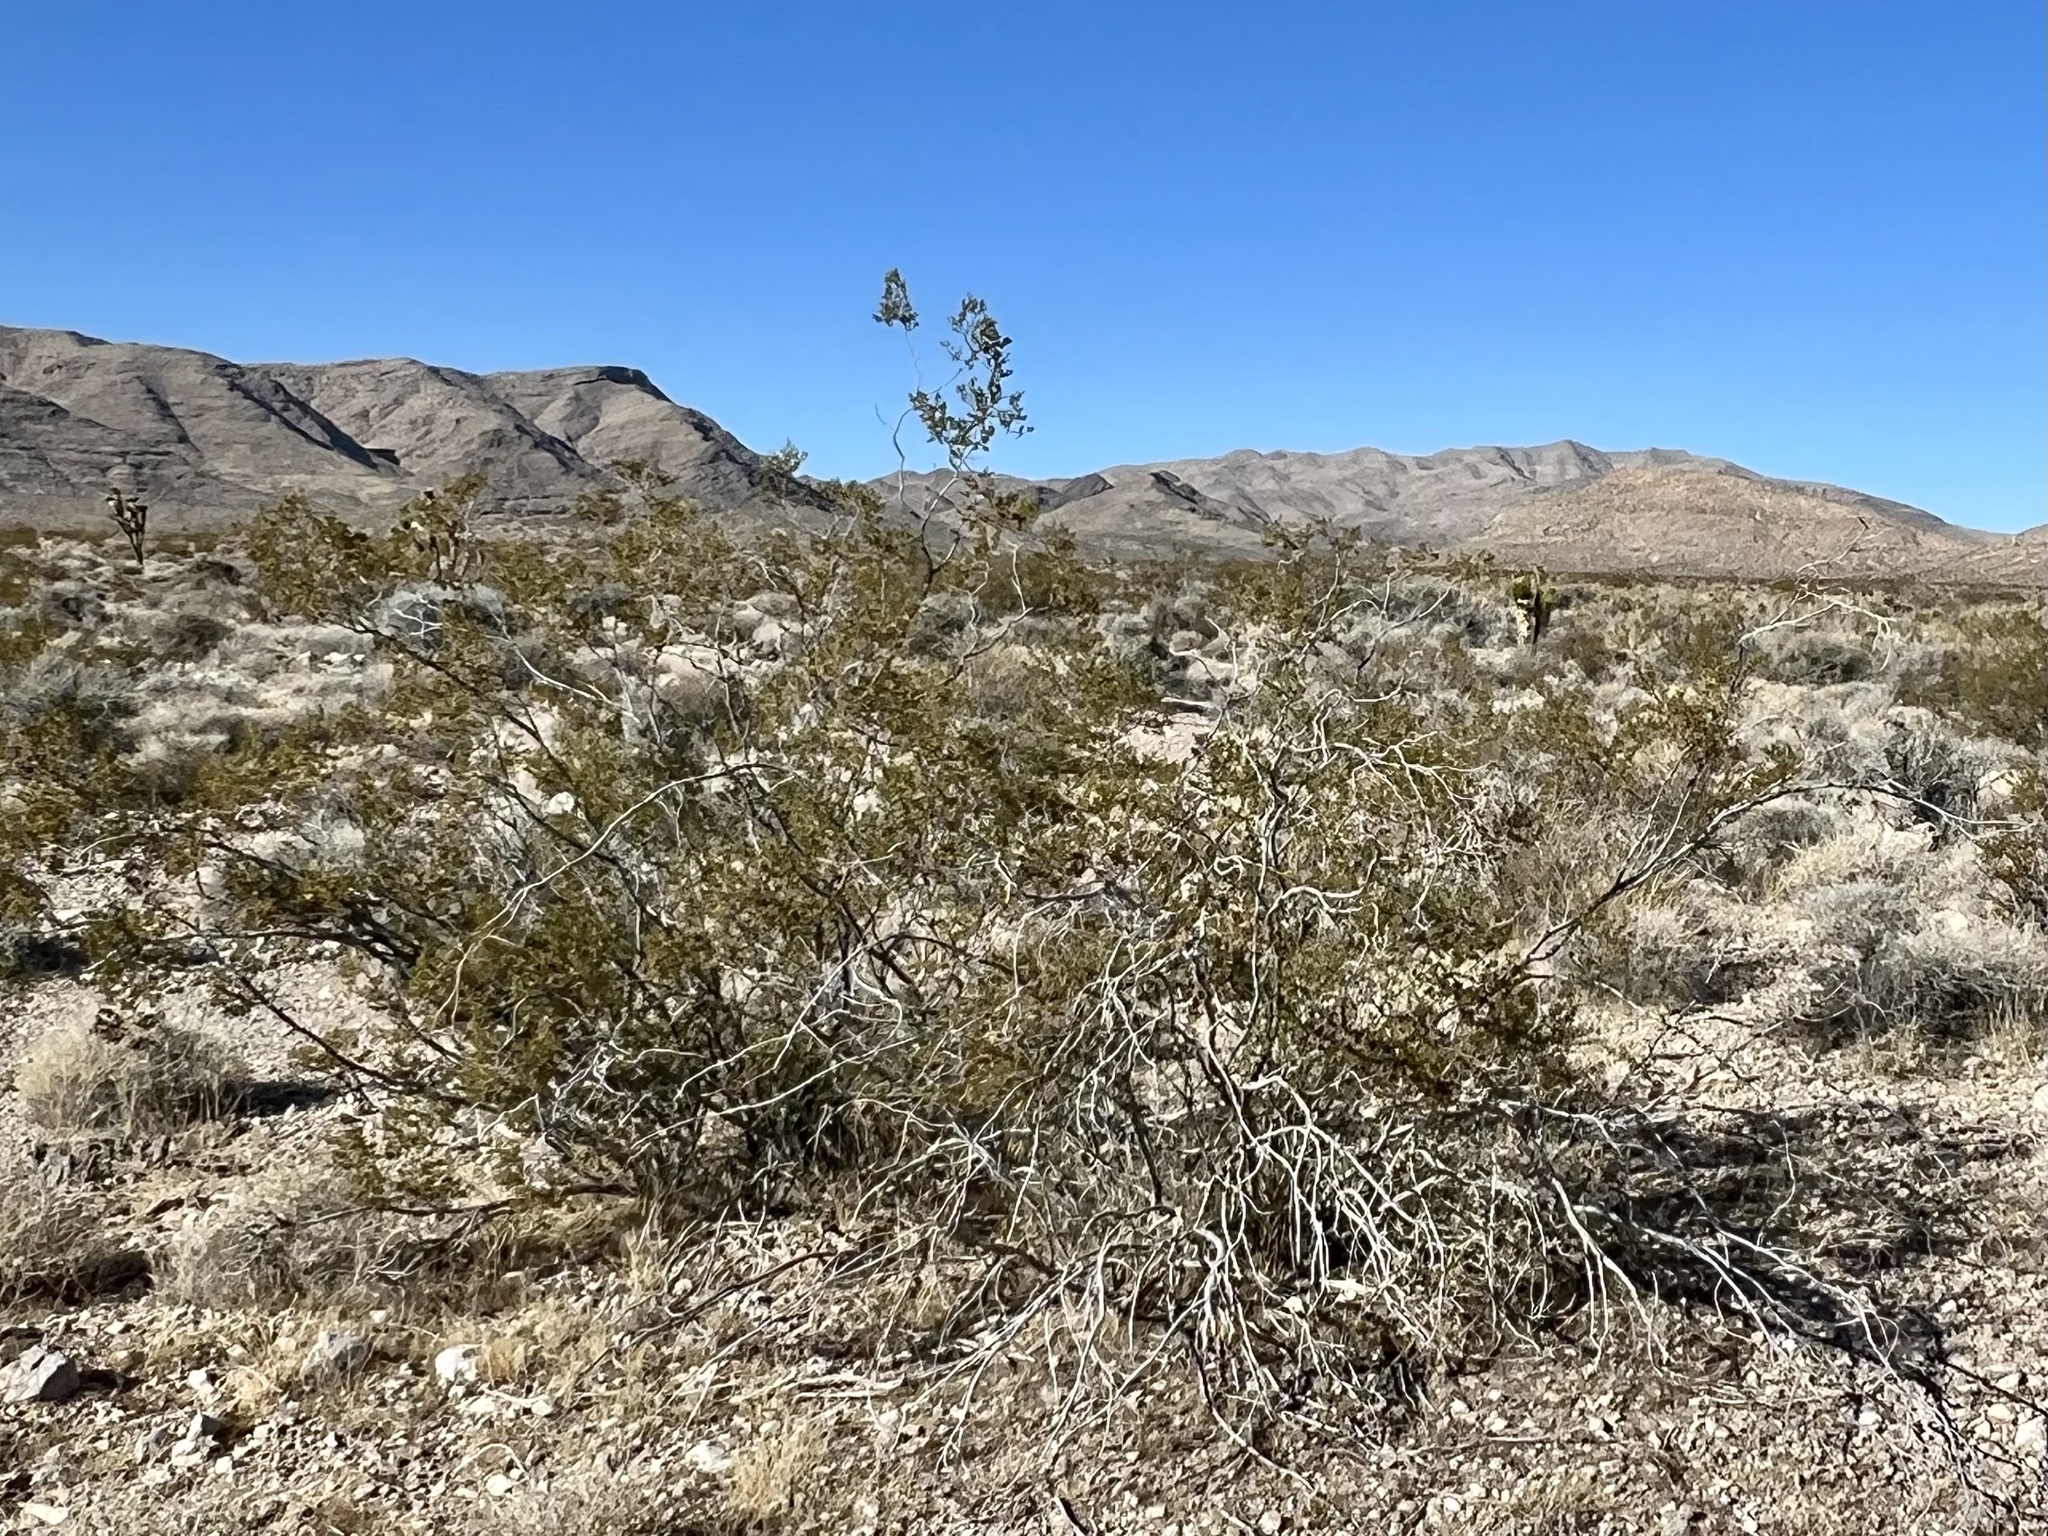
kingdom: Plantae
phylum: Tracheophyta
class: Magnoliopsida
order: Zygophyllales
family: Zygophyllaceae
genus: Larrea
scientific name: Larrea tridentata
